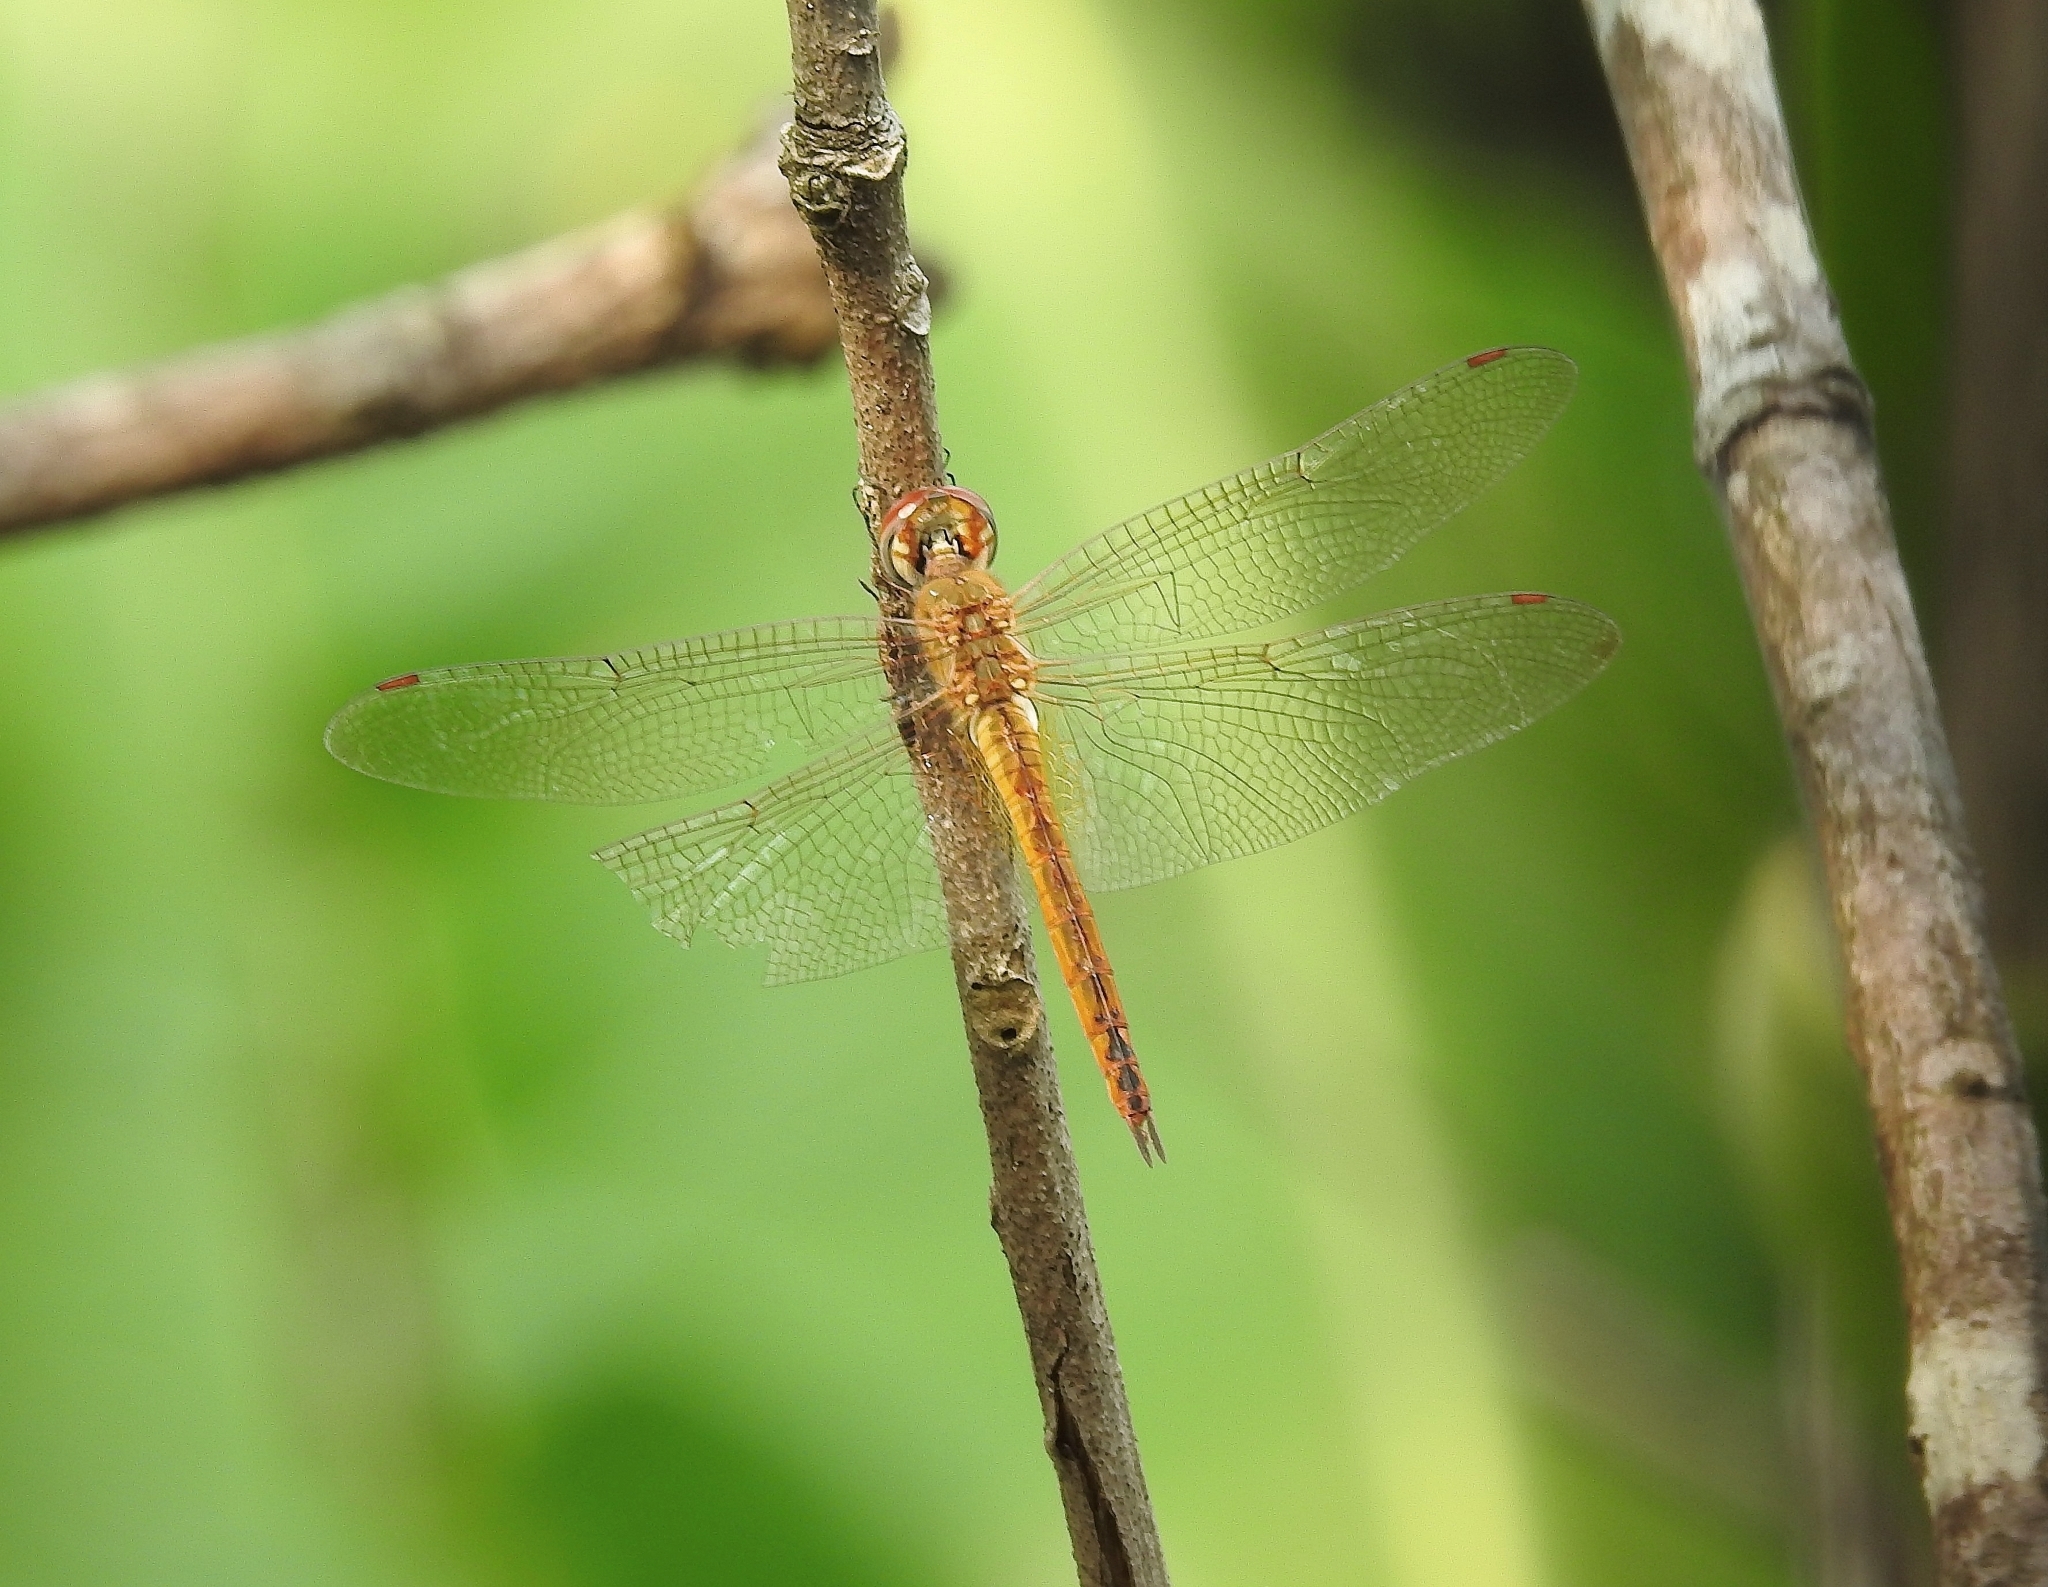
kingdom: Animalia
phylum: Arthropoda
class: Insecta
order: Odonata
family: Libellulidae
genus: Pantala
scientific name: Pantala flavescens
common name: Wandering glider
